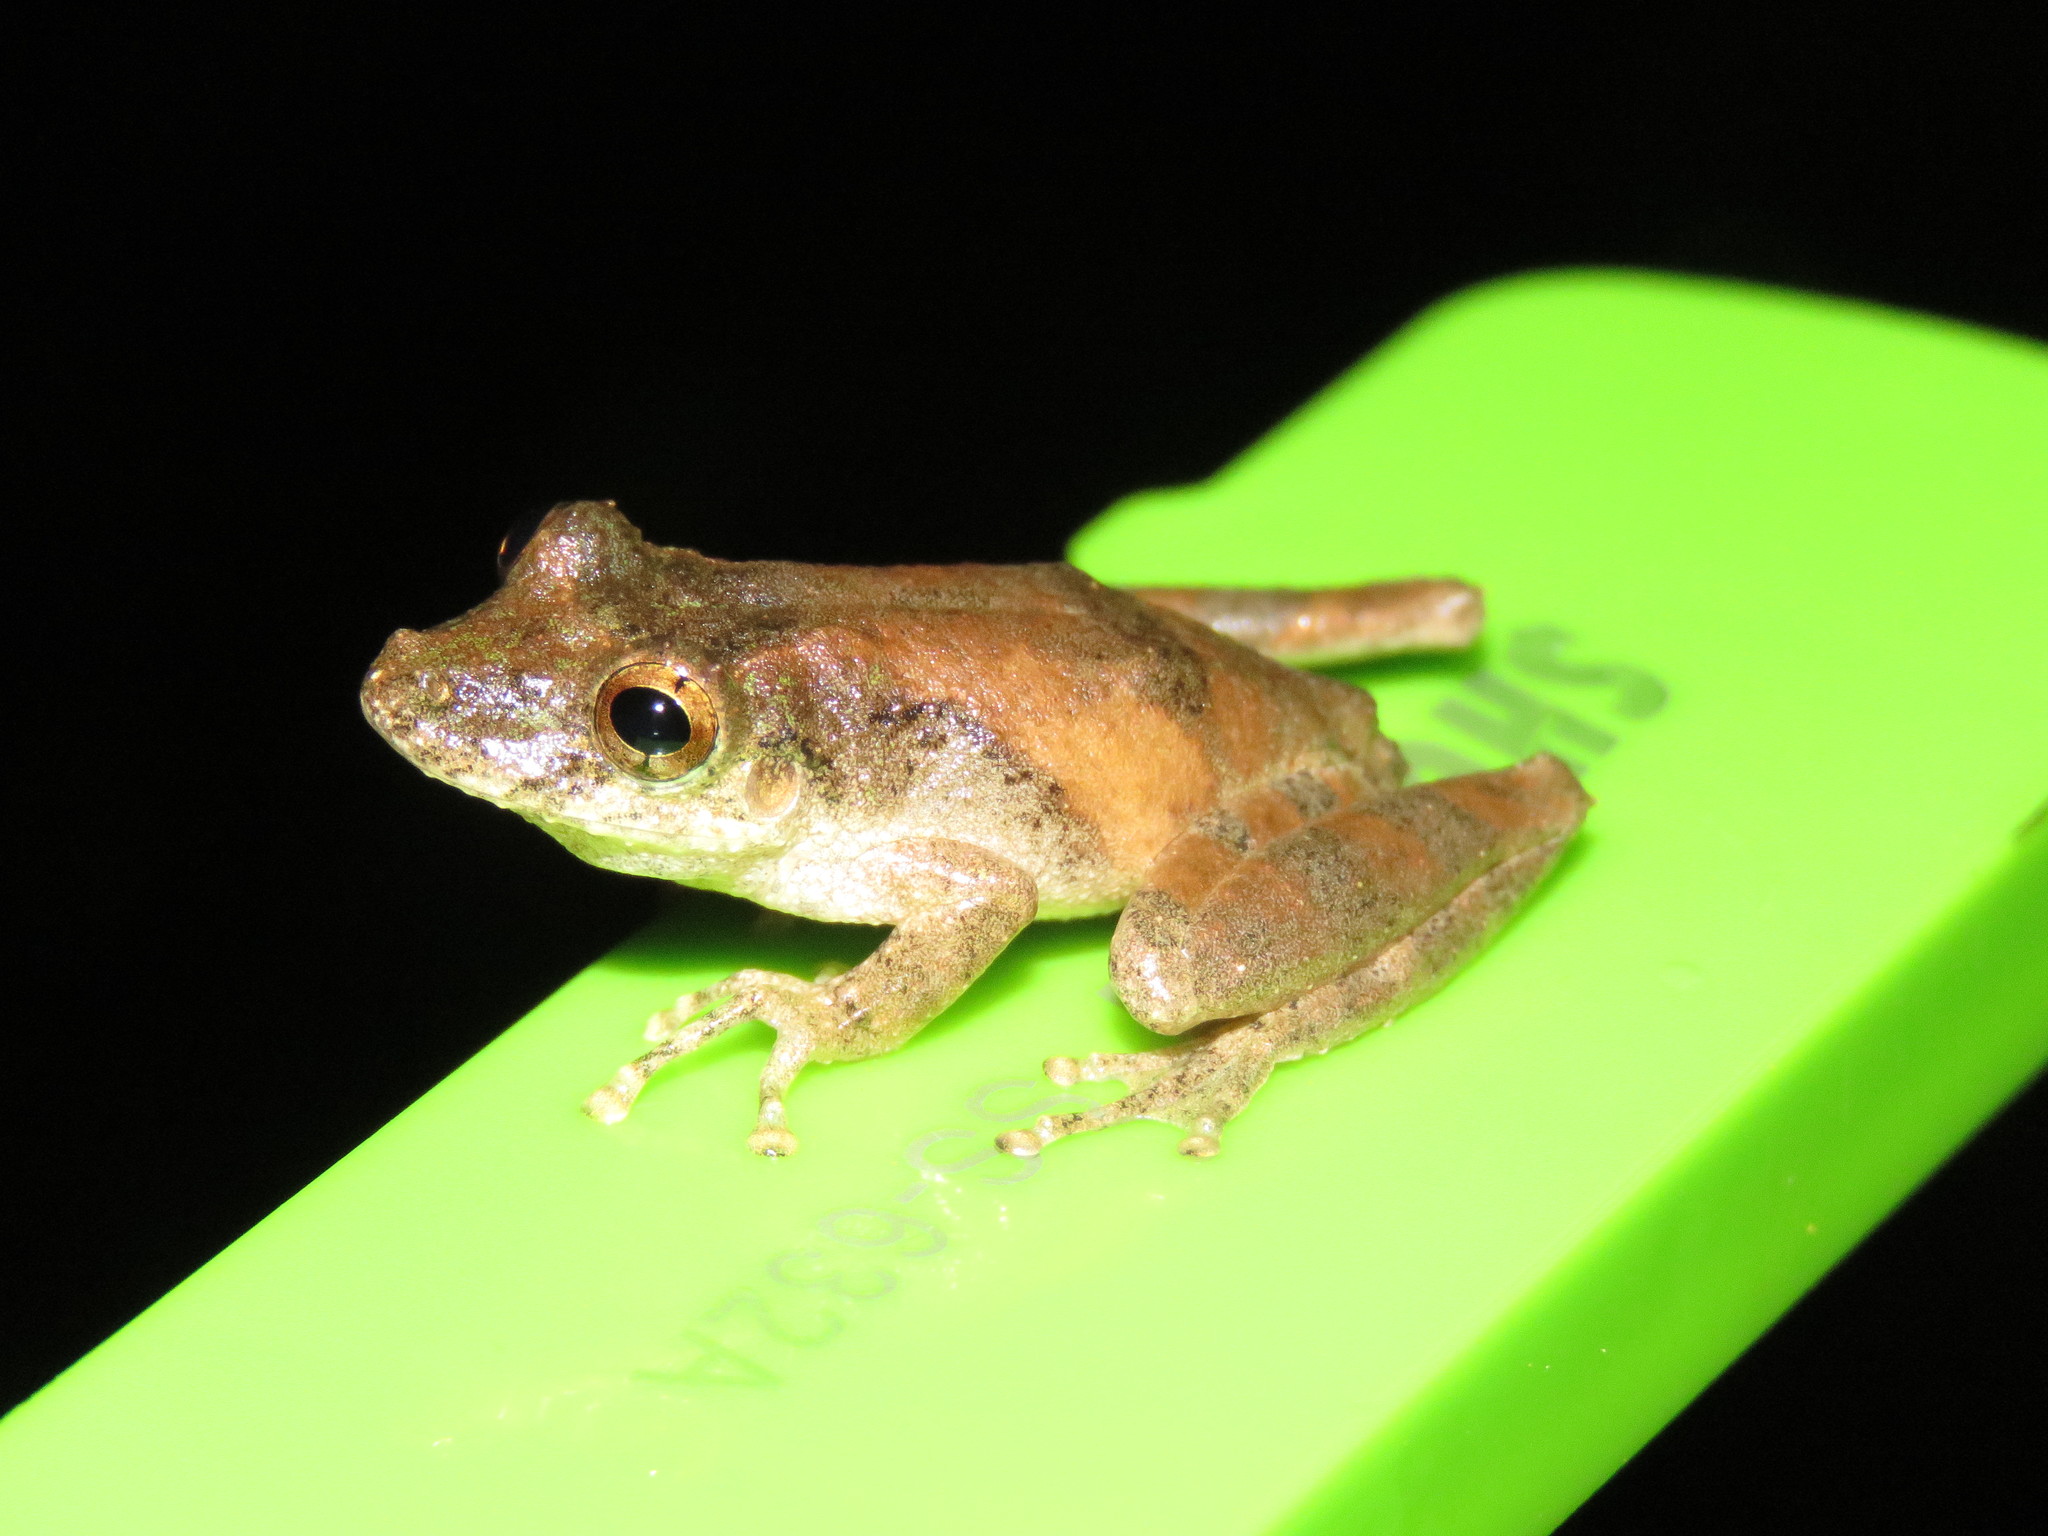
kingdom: Animalia
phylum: Chordata
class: Amphibia
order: Anura
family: Hylidae
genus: Scinax
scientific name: Scinax nebulosus
